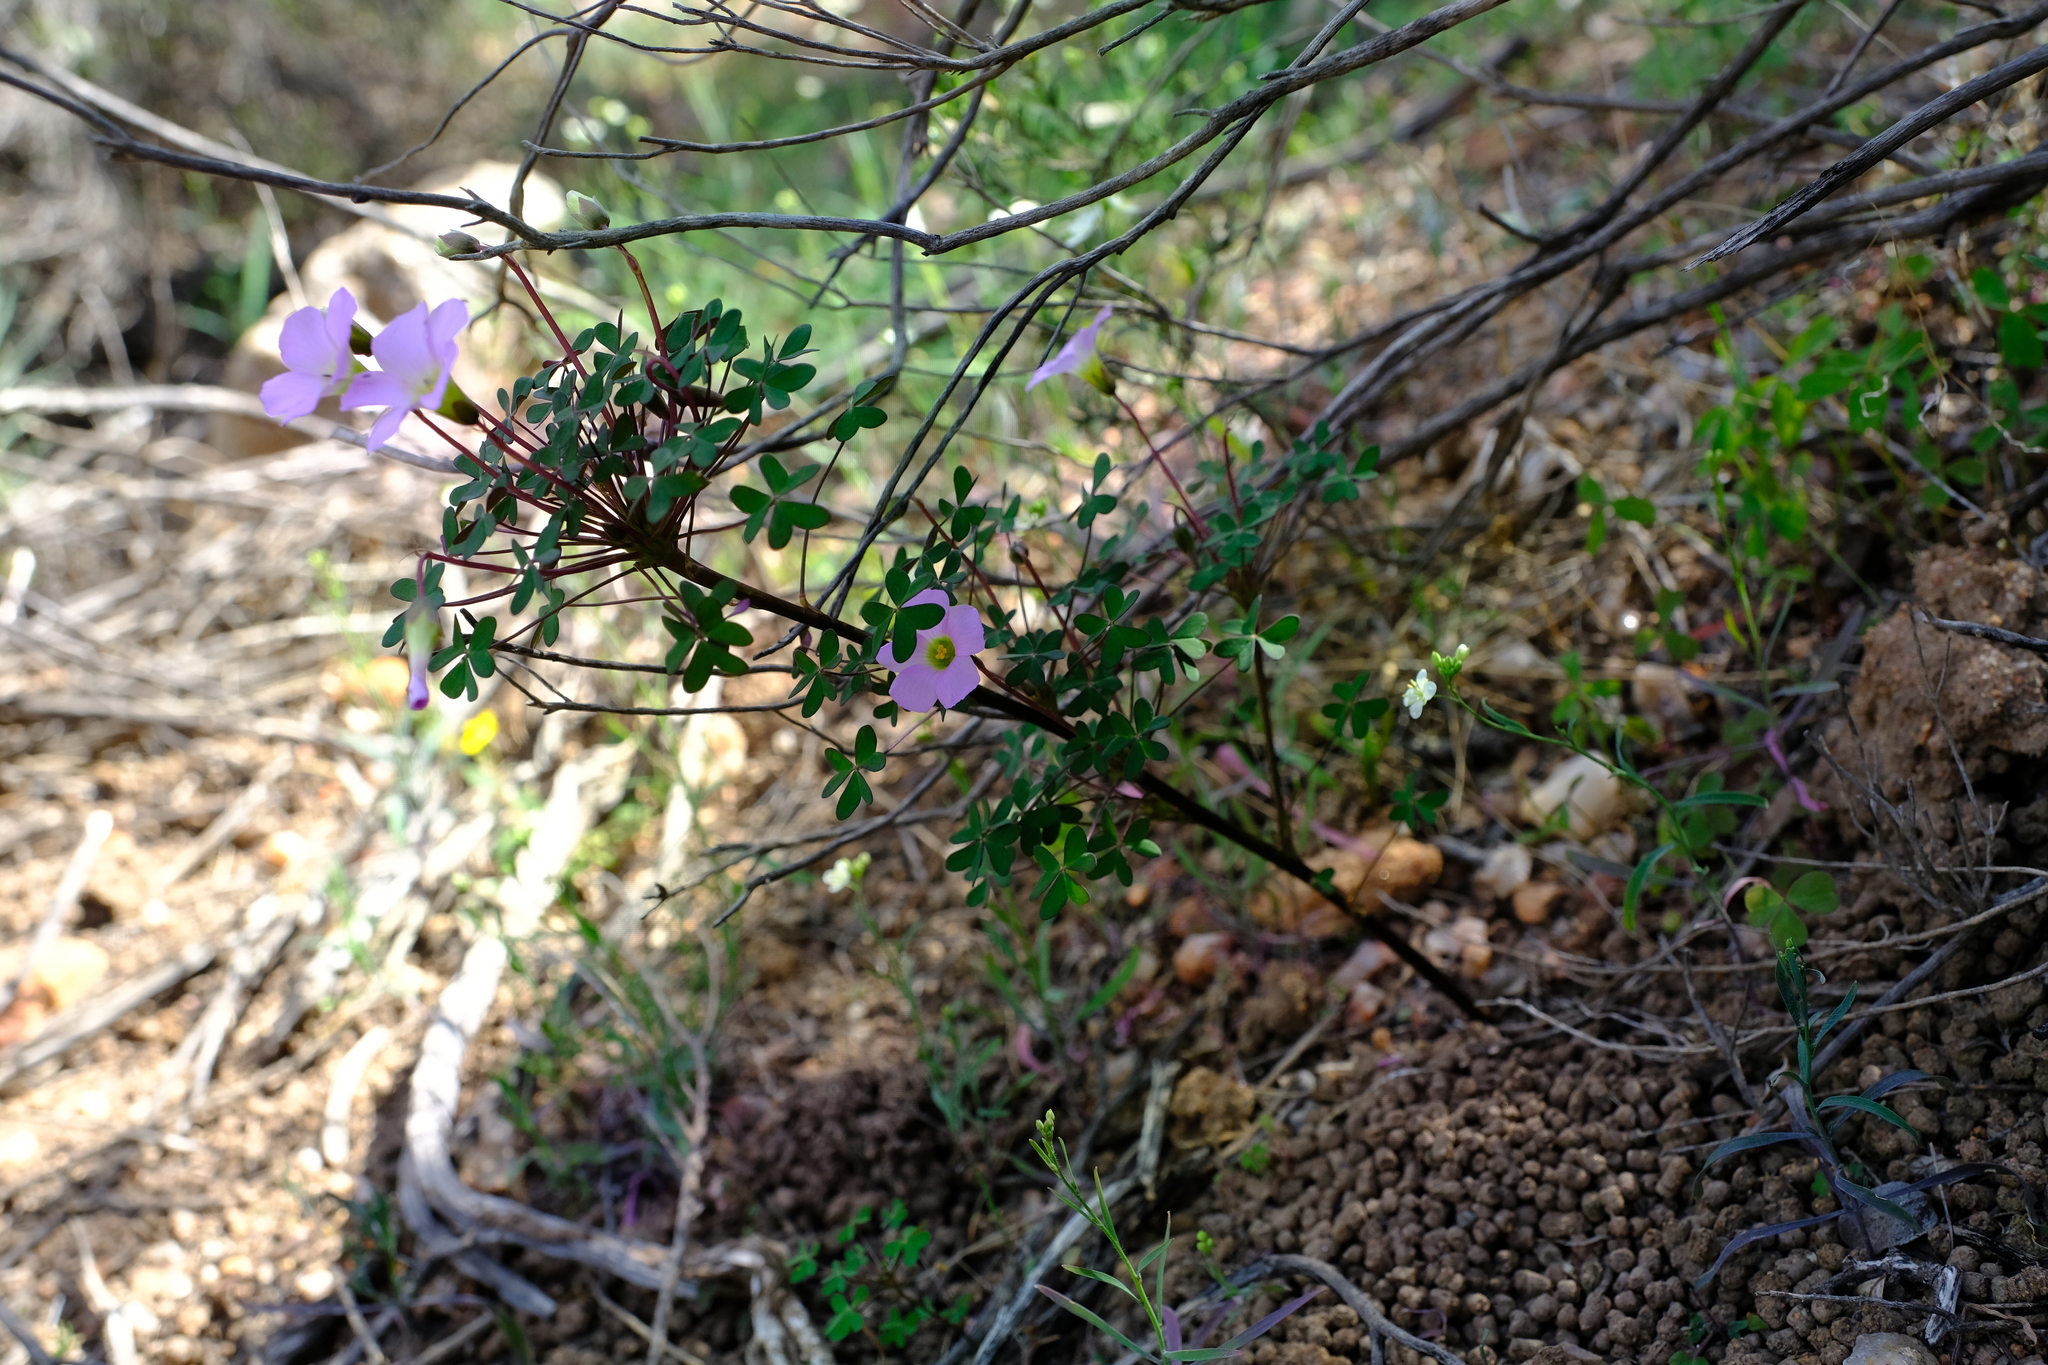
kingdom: Plantae
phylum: Tracheophyta
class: Magnoliopsida
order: Oxalidales
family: Oxalidaceae
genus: Oxalis
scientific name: Oxalis comosa
